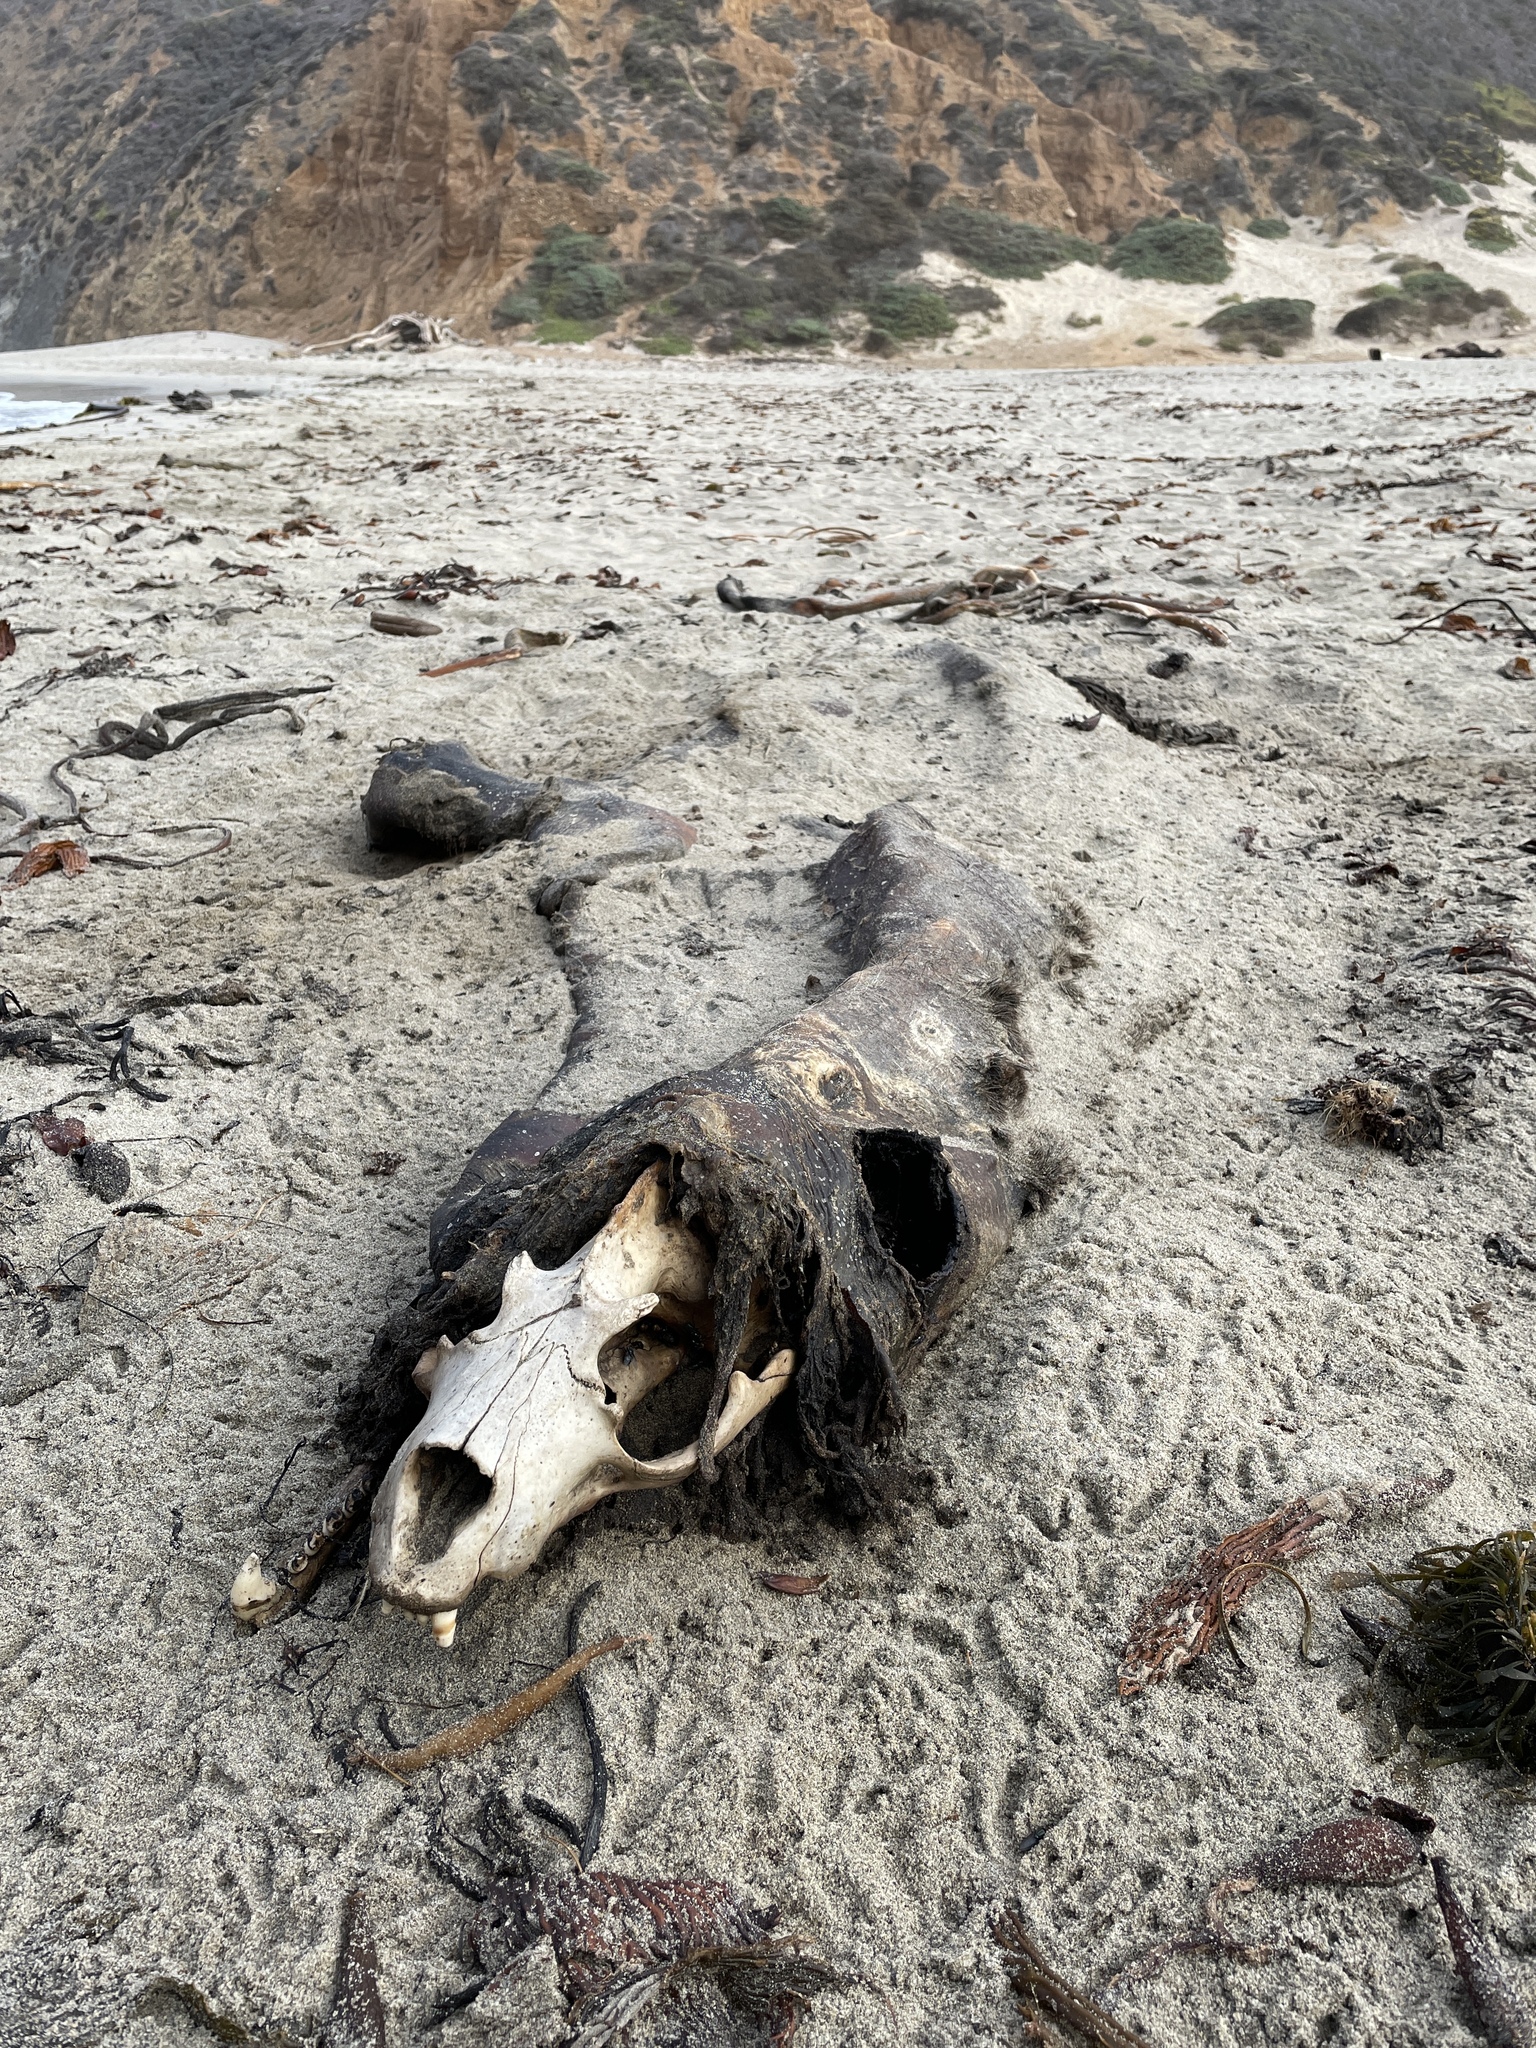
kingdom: Animalia
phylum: Chordata
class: Mammalia
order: Carnivora
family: Otariidae
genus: Zalophus
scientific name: Zalophus californianus
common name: California sea lion
